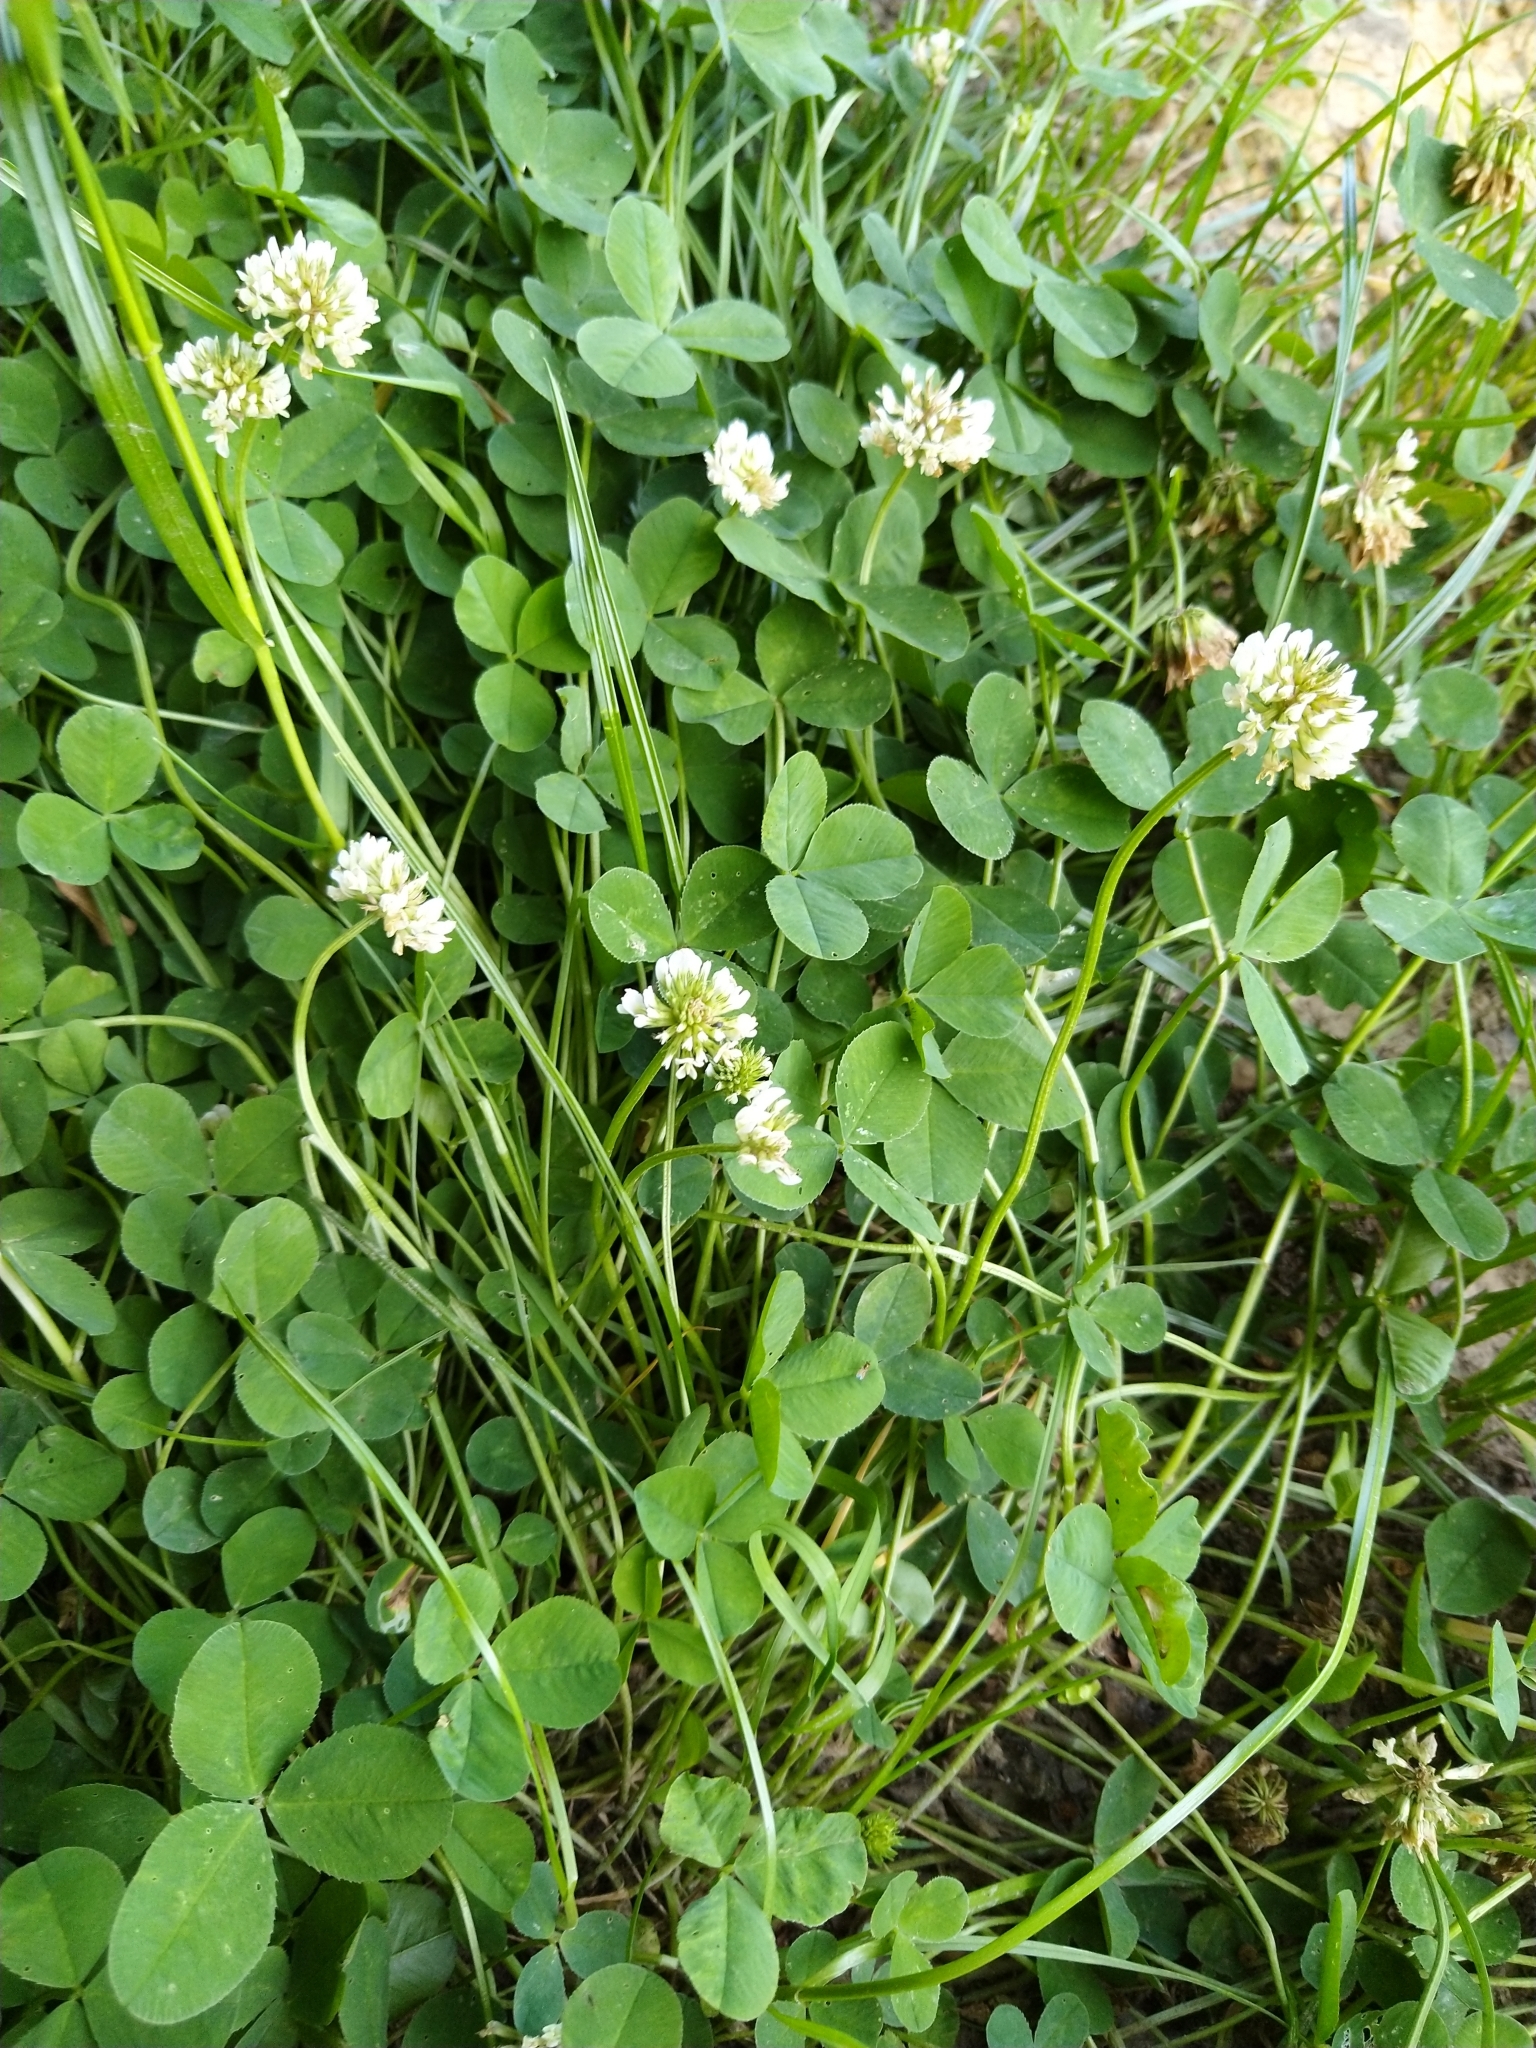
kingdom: Plantae
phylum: Tracheophyta
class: Magnoliopsida
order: Fabales
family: Fabaceae
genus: Trifolium
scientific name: Trifolium repens
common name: White clover
